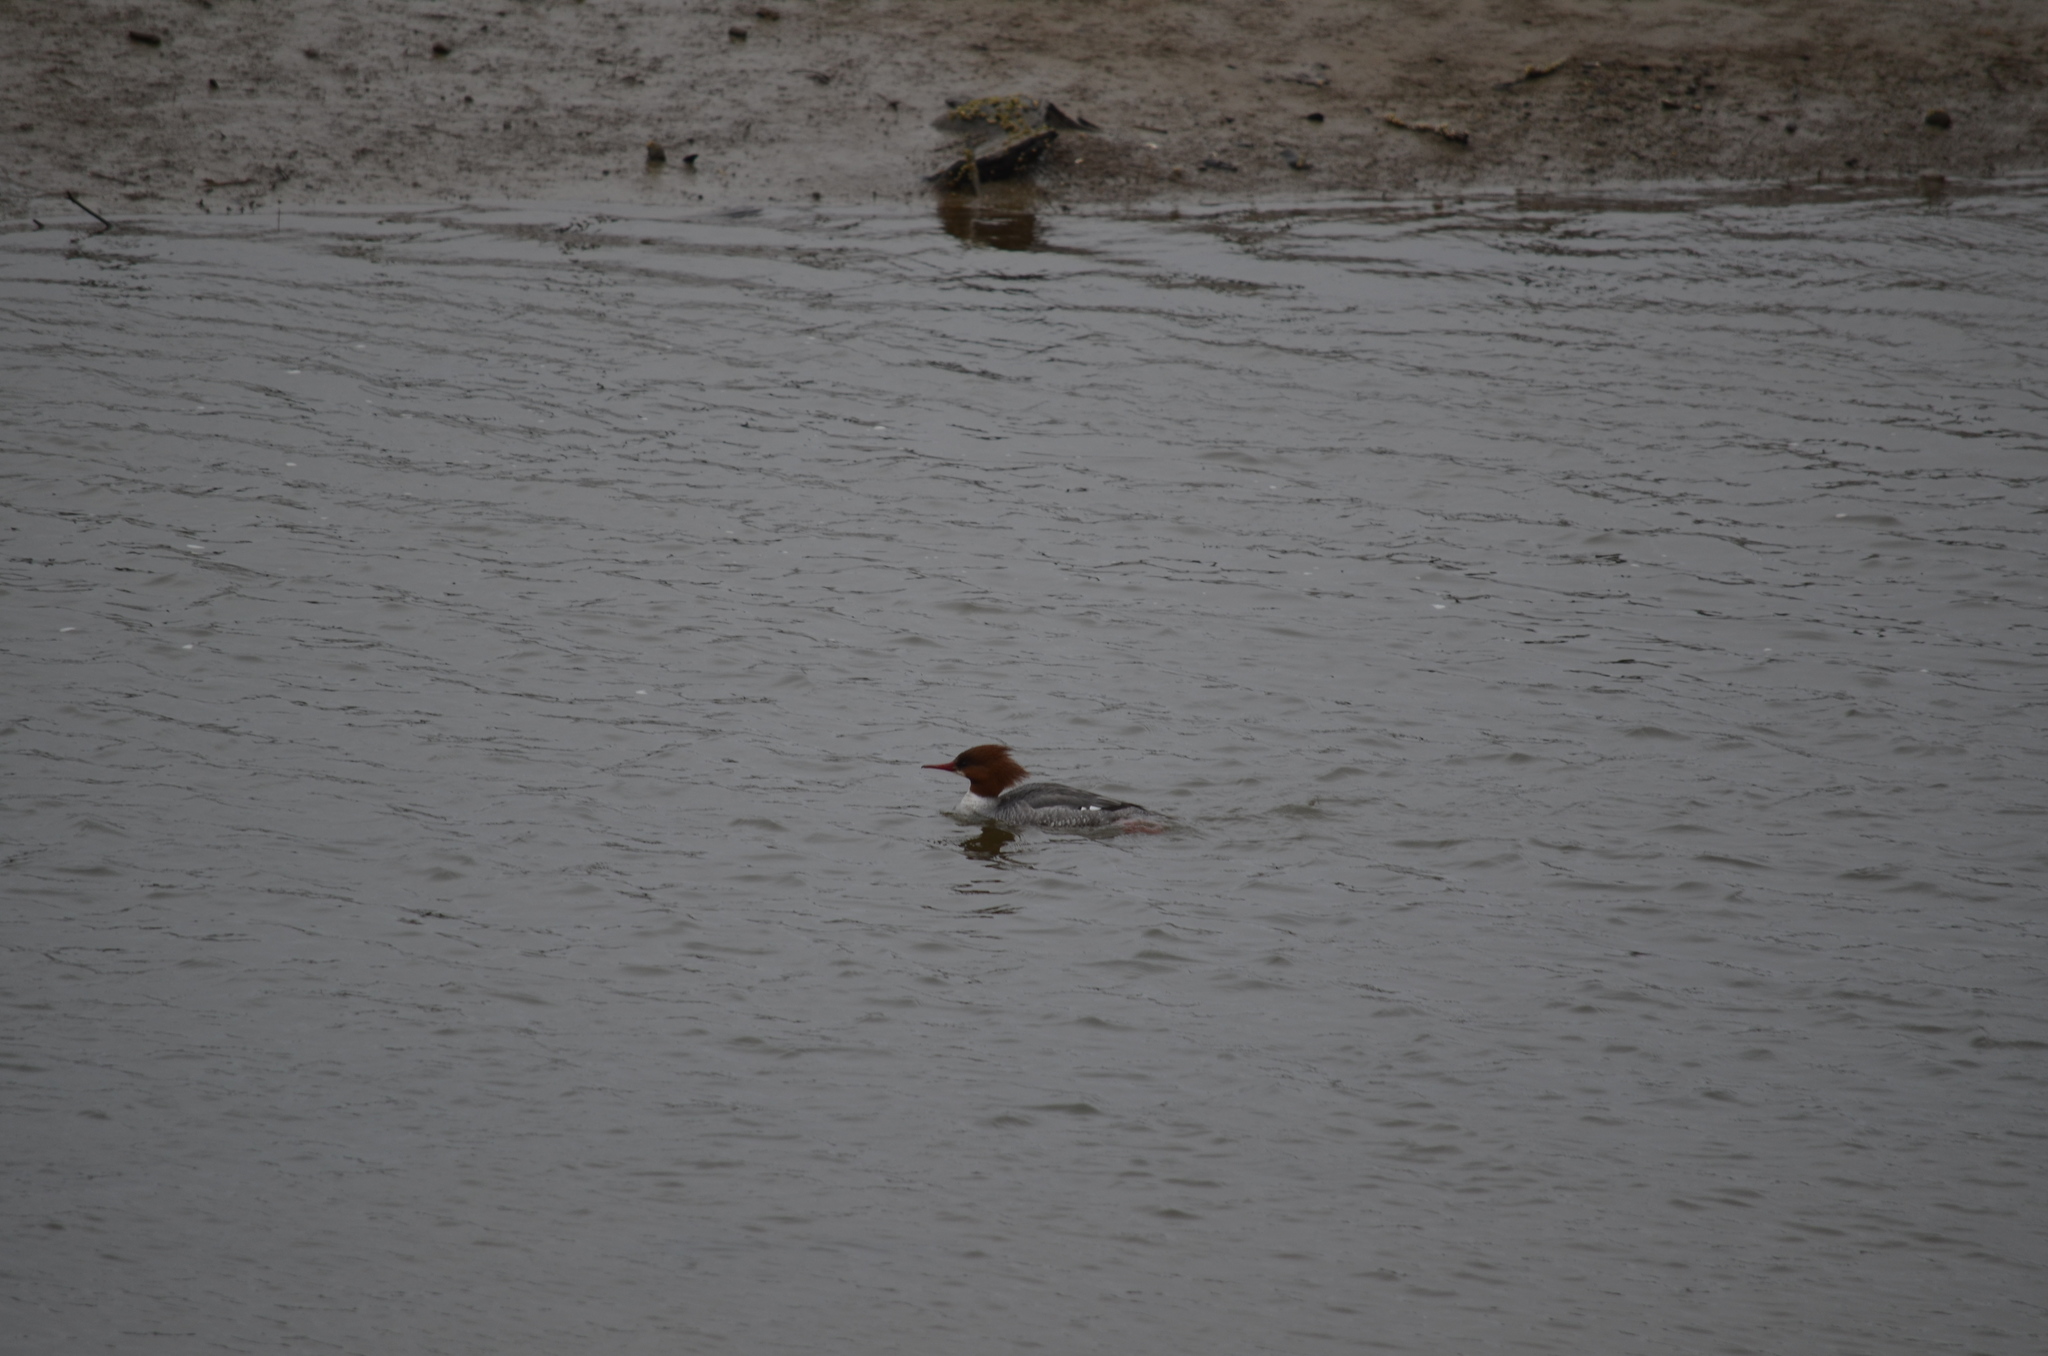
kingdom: Animalia
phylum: Chordata
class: Aves
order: Anseriformes
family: Anatidae
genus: Mergus
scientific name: Mergus merganser
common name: Common merganser
